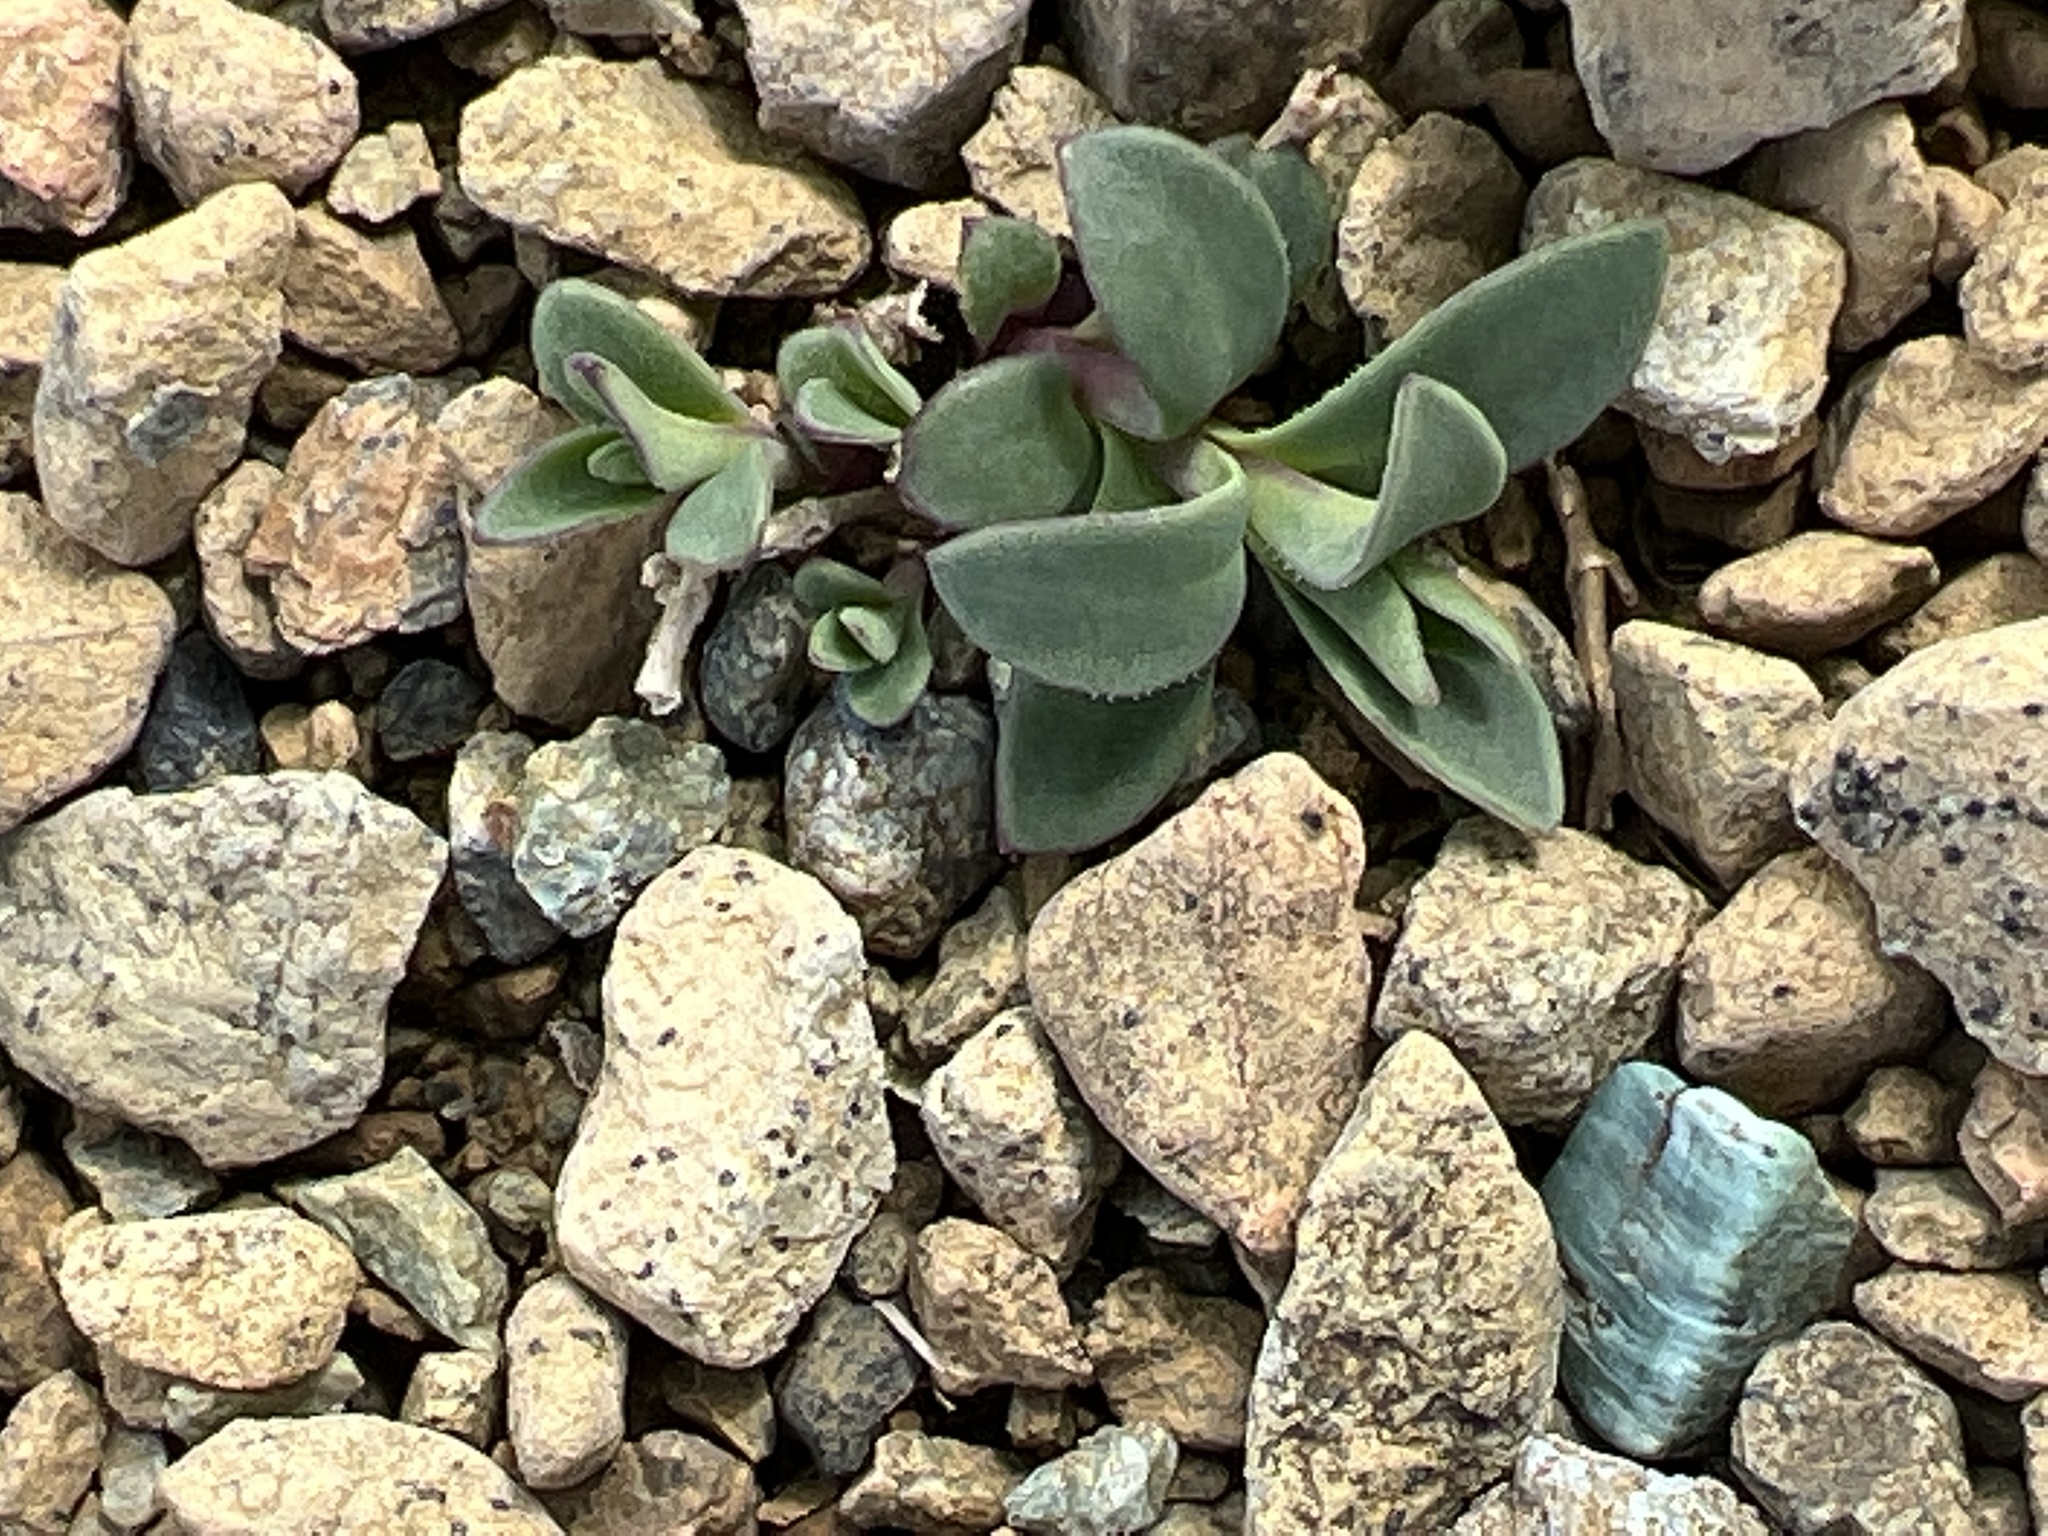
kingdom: Plantae
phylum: Tracheophyta
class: Magnoliopsida
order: Boraginales
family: Boraginaceae
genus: Mertensia
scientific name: Mertensia maritima
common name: Oysterplant
